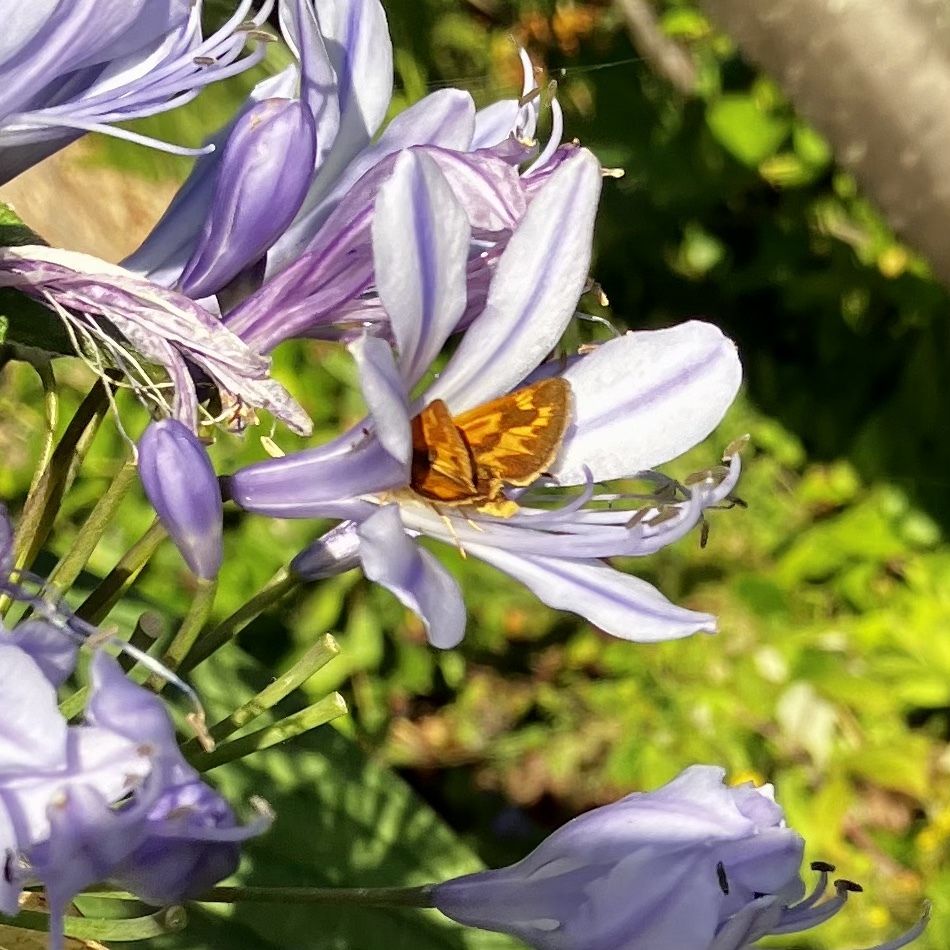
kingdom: Animalia
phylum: Arthropoda
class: Insecta
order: Lepidoptera
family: Hesperiidae
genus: Ochlodes
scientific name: Ochlodes sylvanoides
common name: Woodland skipper
